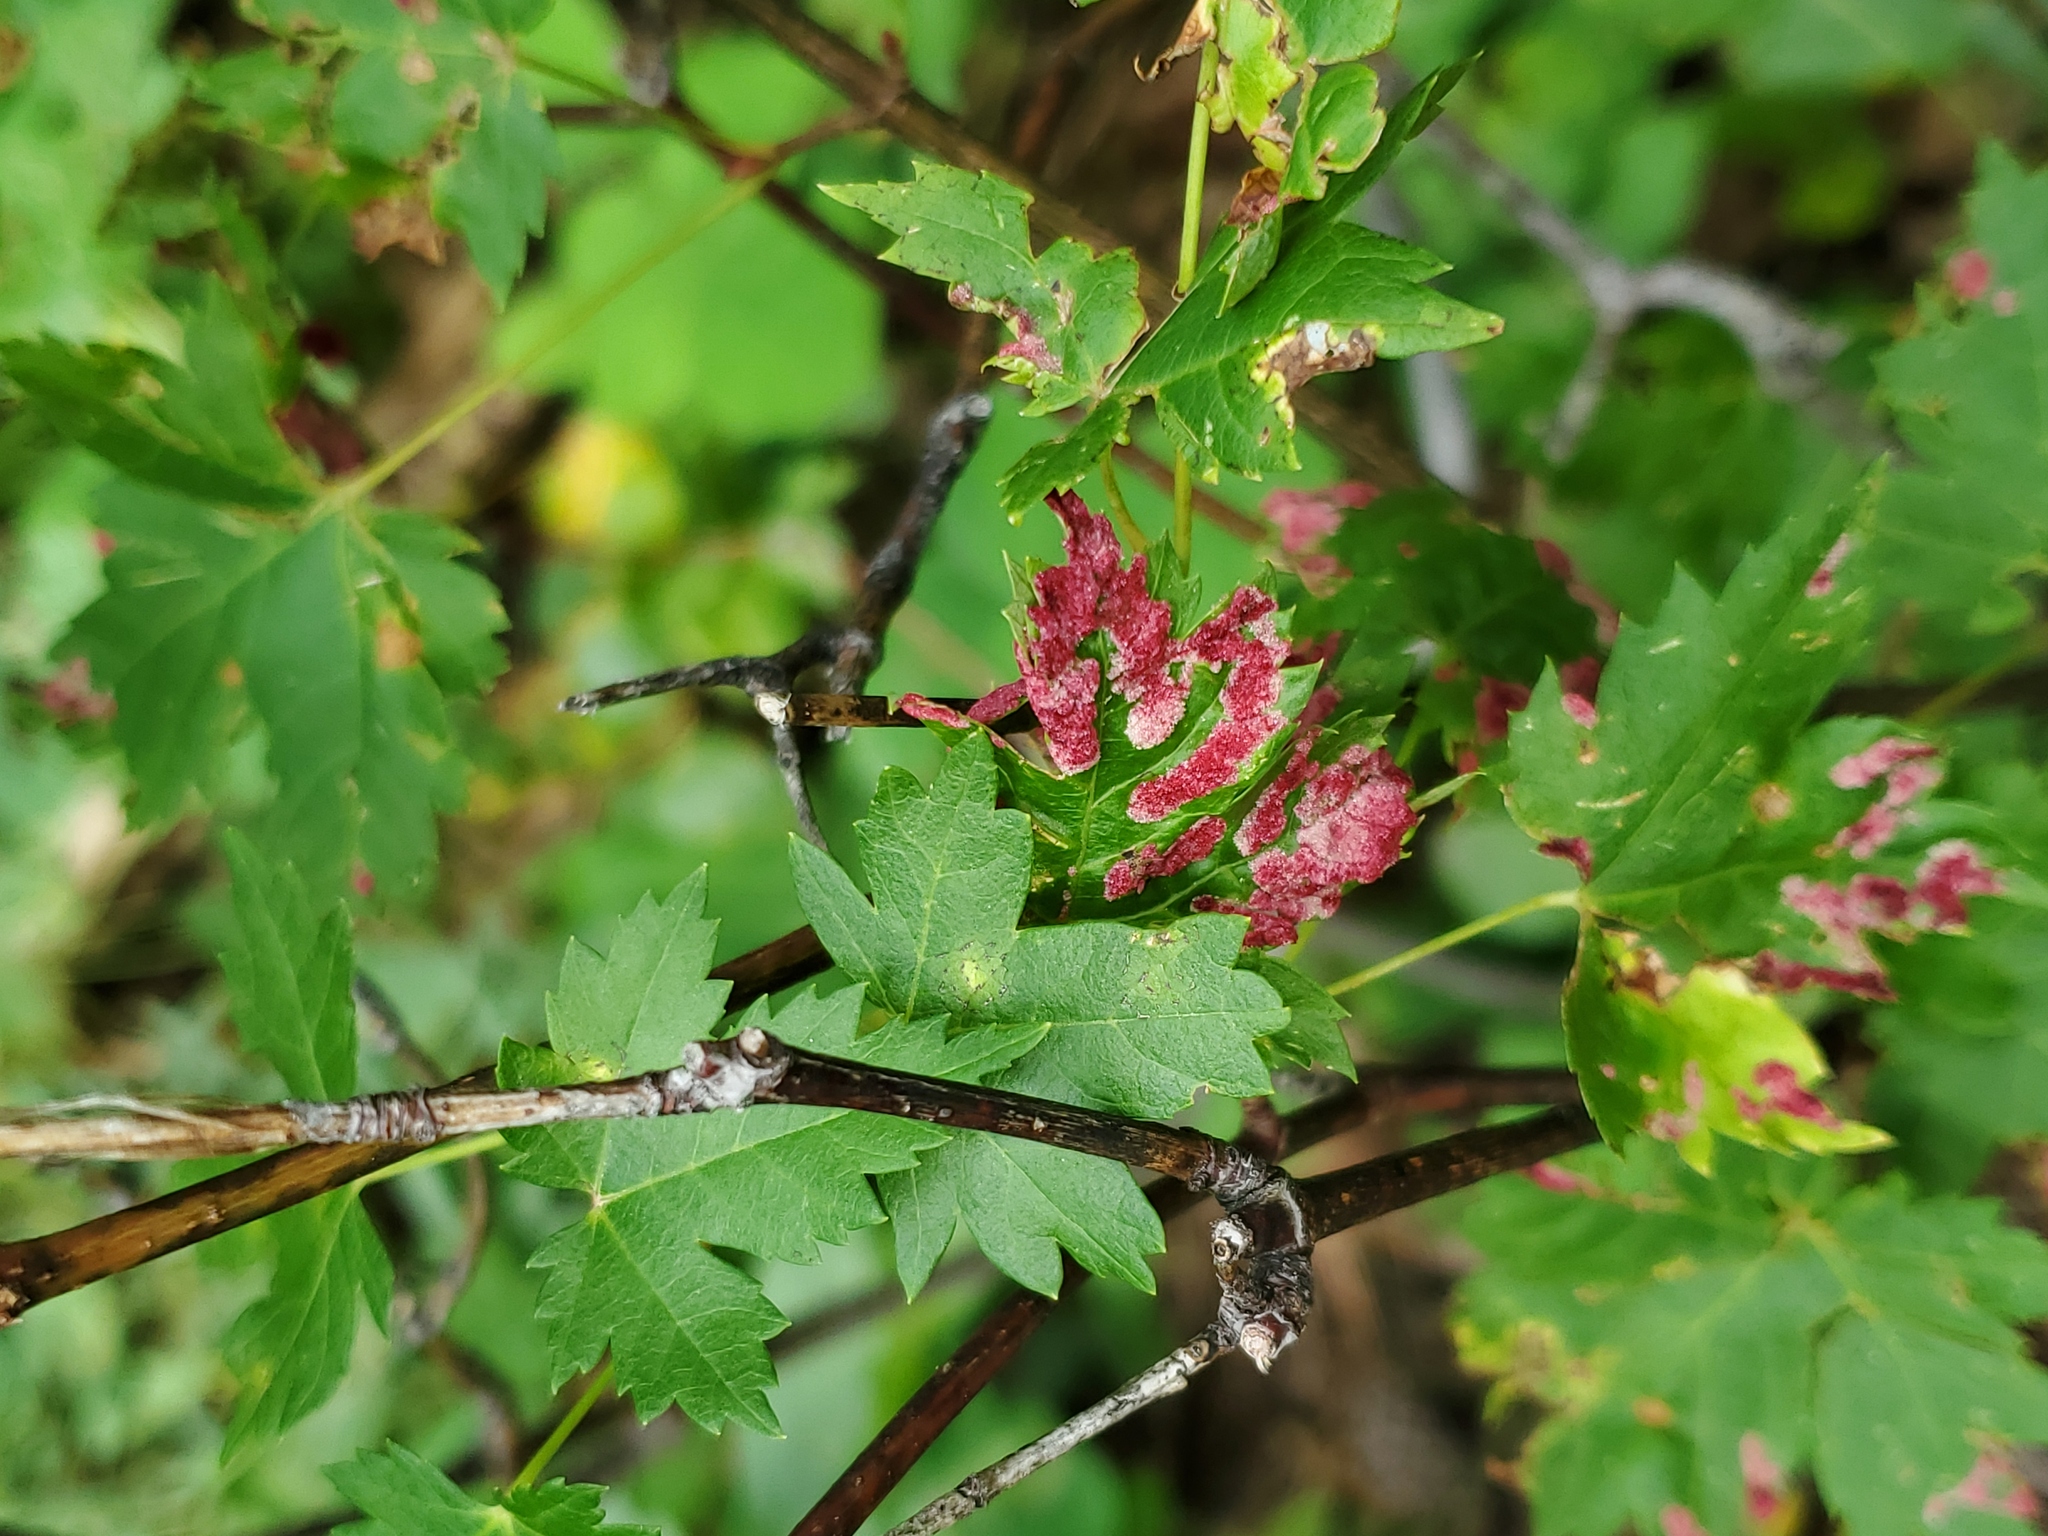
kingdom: Animalia
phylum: Arthropoda
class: Arachnida
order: Trombidiformes
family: Eriophyidae
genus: Aceria
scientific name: Aceria
